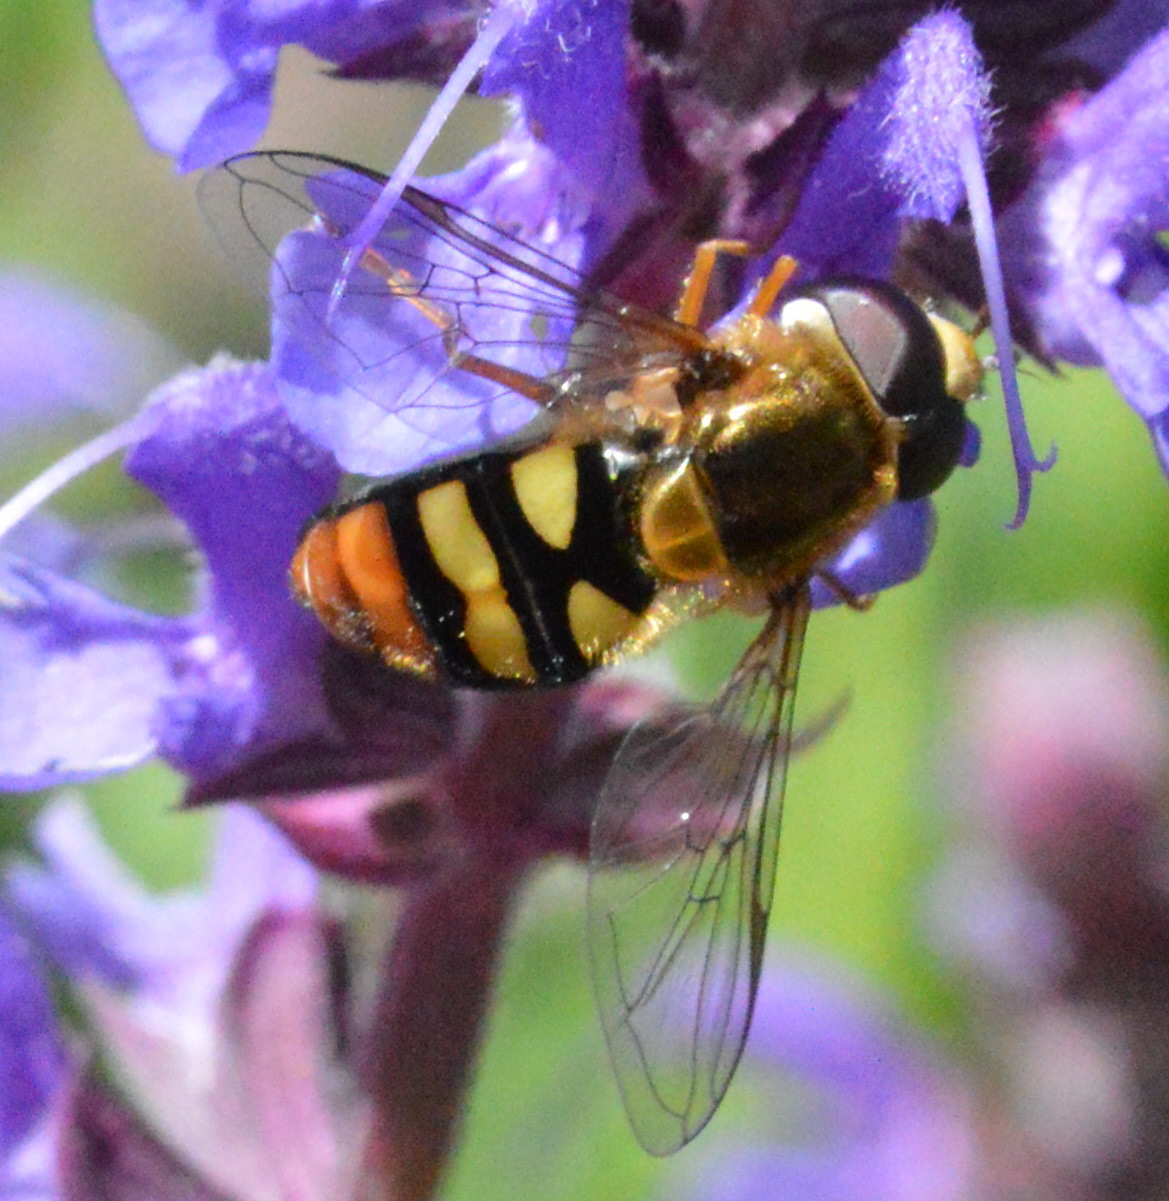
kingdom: Animalia
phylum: Arthropoda
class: Insecta
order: Diptera
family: Syrphidae
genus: Eupeodes
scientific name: Eupeodes snowi
